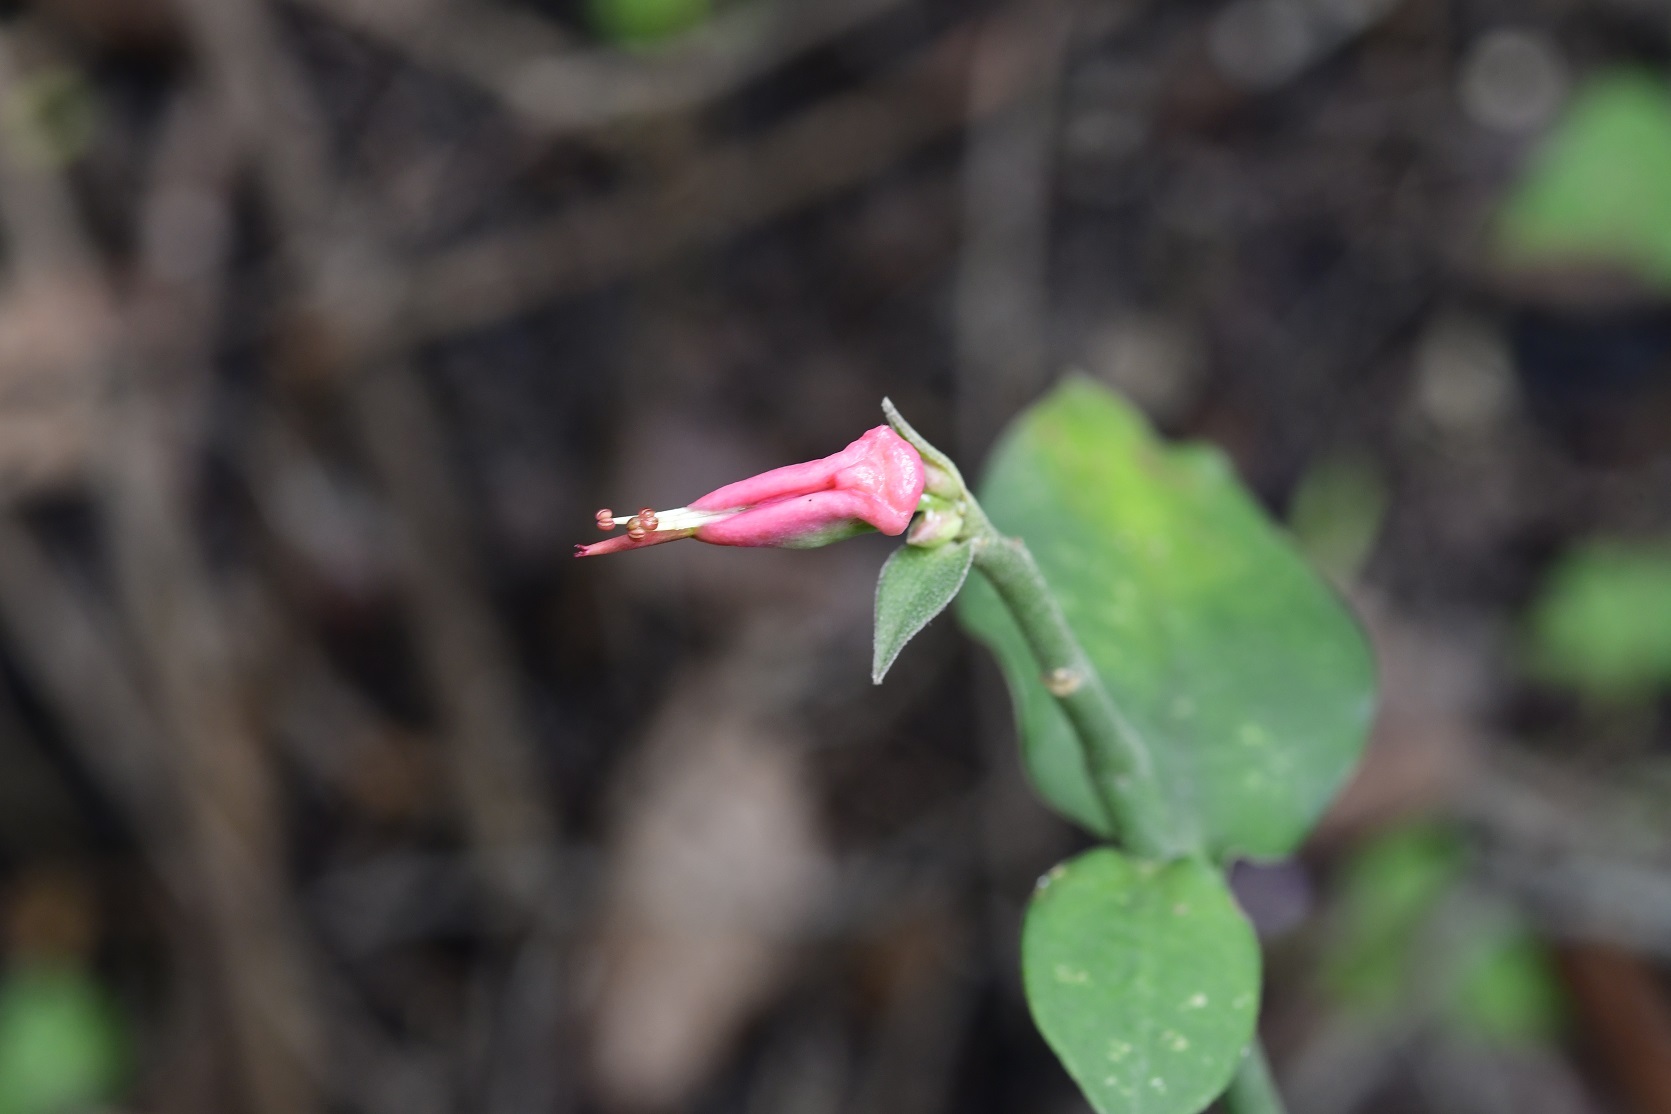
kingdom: Plantae
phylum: Tracheophyta
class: Magnoliopsida
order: Malpighiales
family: Euphorbiaceae
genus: Euphorbia
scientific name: Euphorbia tithymaloides
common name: Slipperplant
